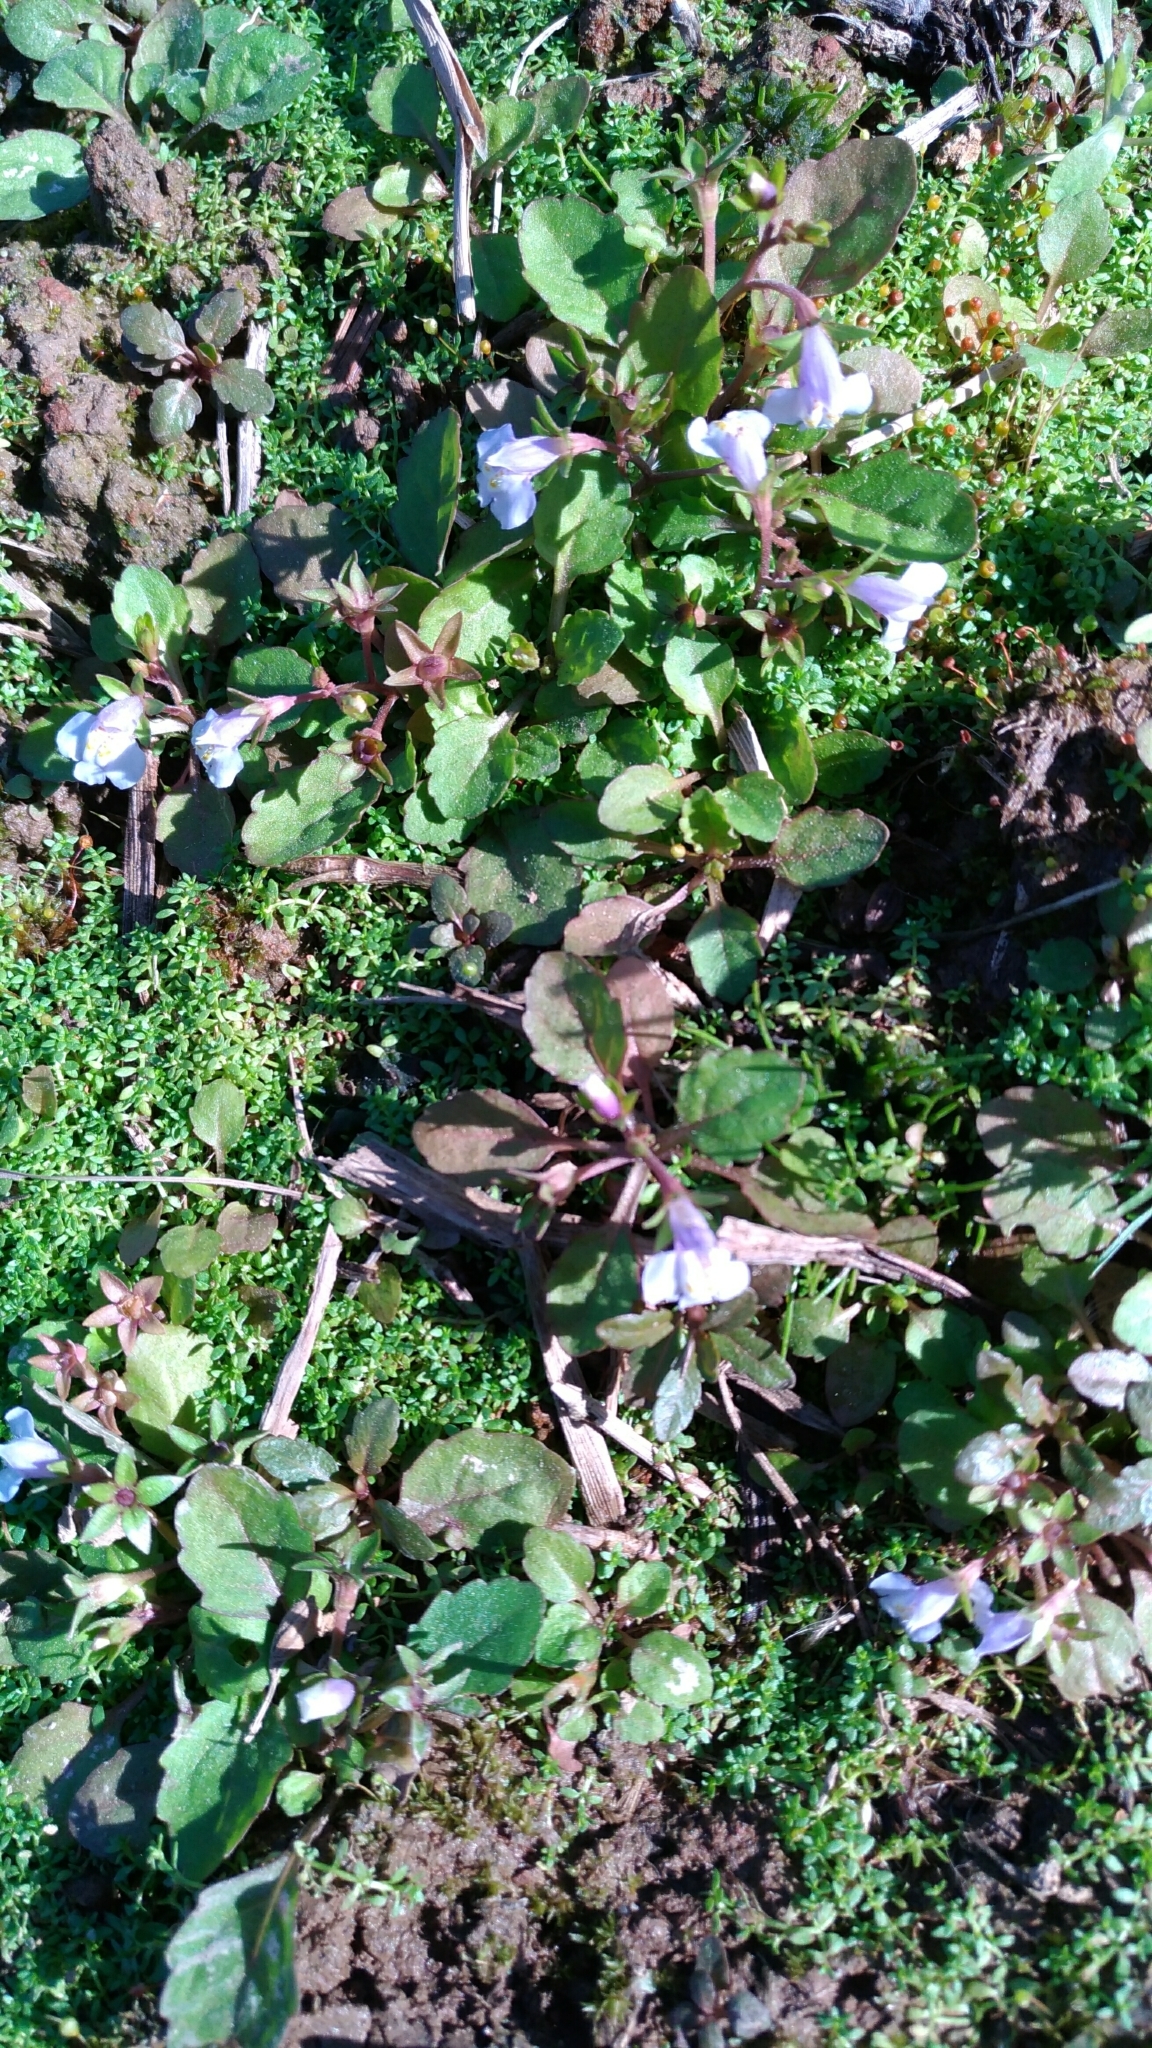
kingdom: Plantae
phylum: Tracheophyta
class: Magnoliopsida
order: Lamiales
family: Mazaceae
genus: Mazus
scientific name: Mazus pumilus
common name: Japanese mazus
